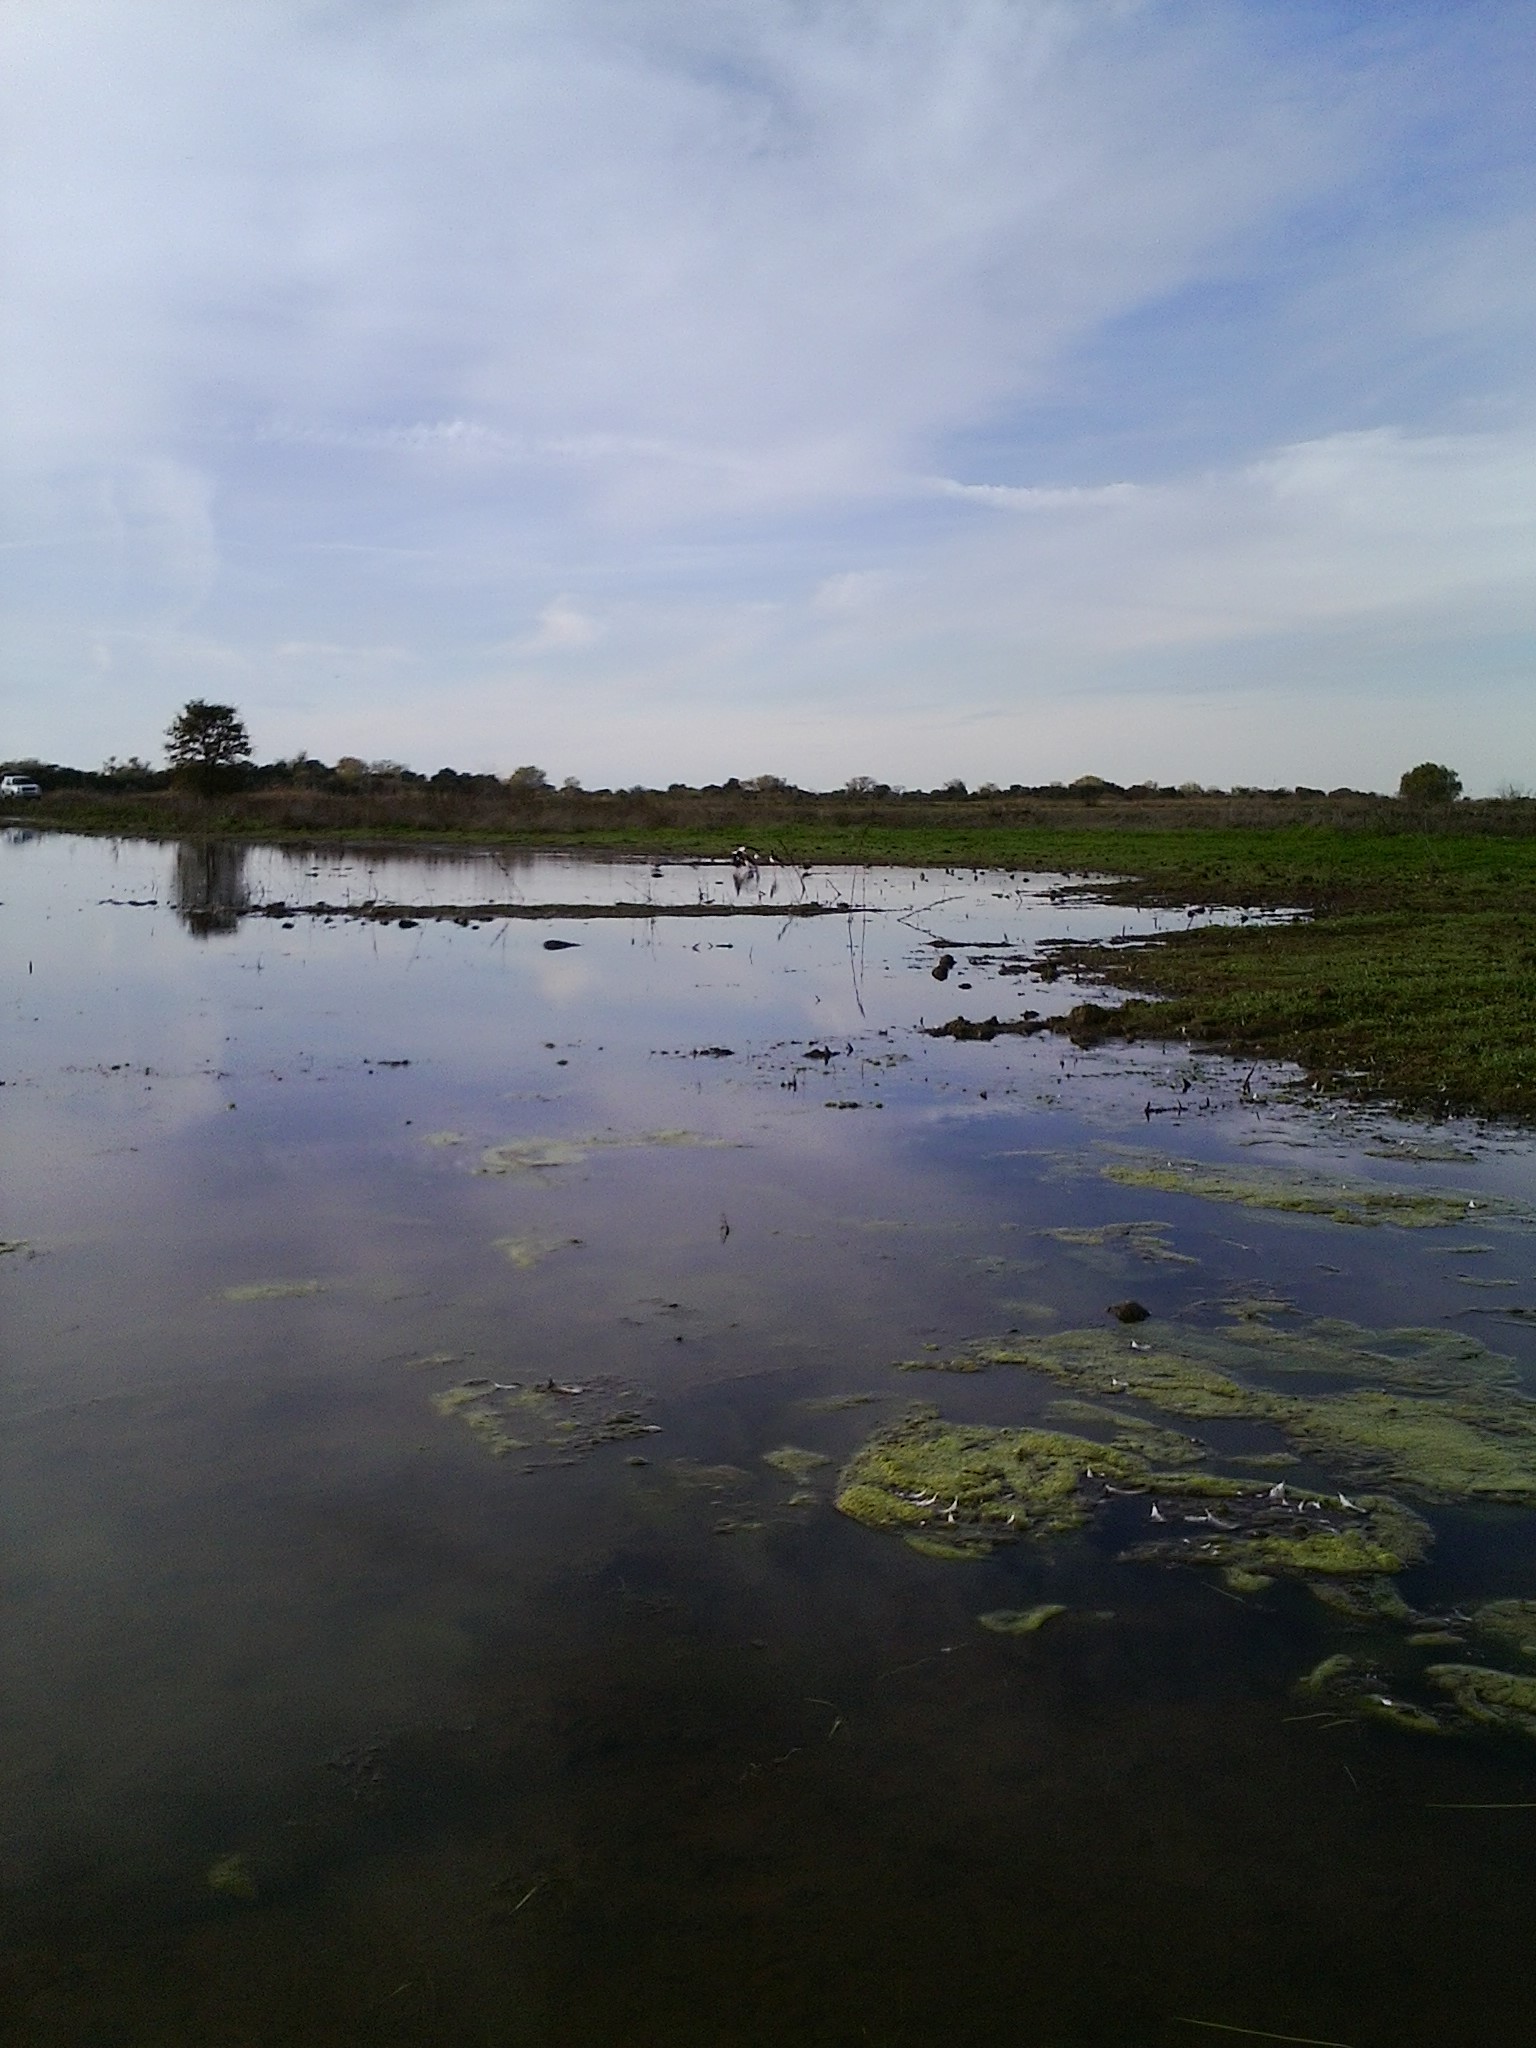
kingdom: Animalia
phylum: Chordata
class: Aves
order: Charadriiformes
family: Recurvirostridae
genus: Himantopus
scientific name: Himantopus mexicanus
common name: Black-necked stilt
